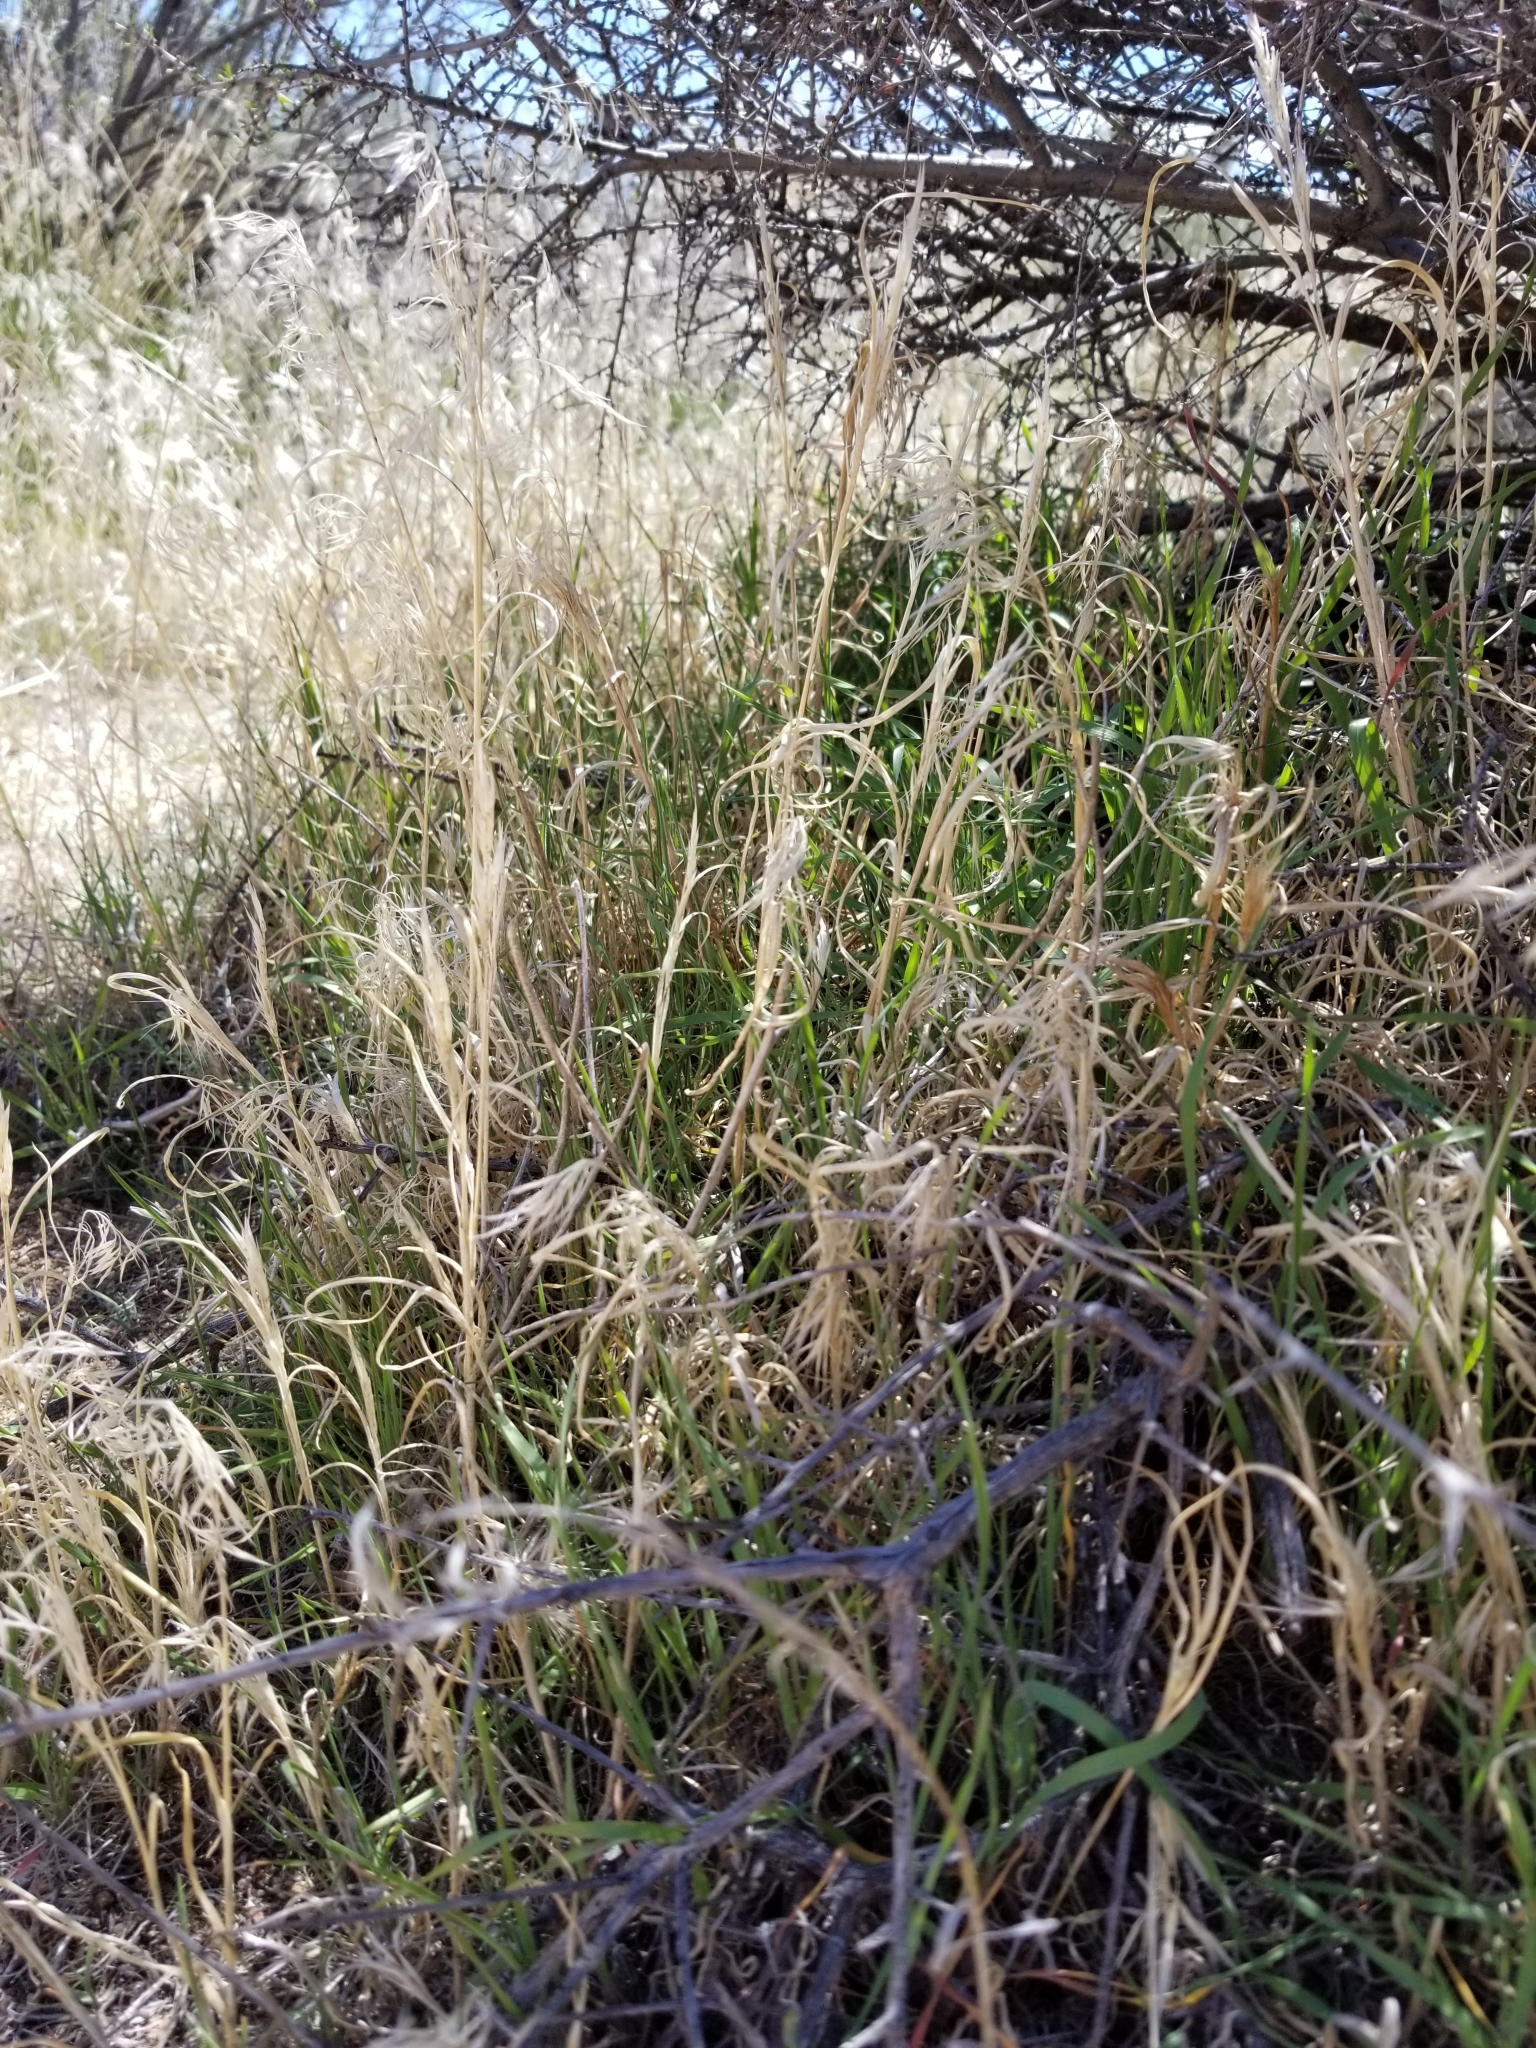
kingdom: Plantae
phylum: Tracheophyta
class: Liliopsida
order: Poales
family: Poaceae
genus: Bromus
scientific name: Bromus tectorum
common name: Cheatgrass
